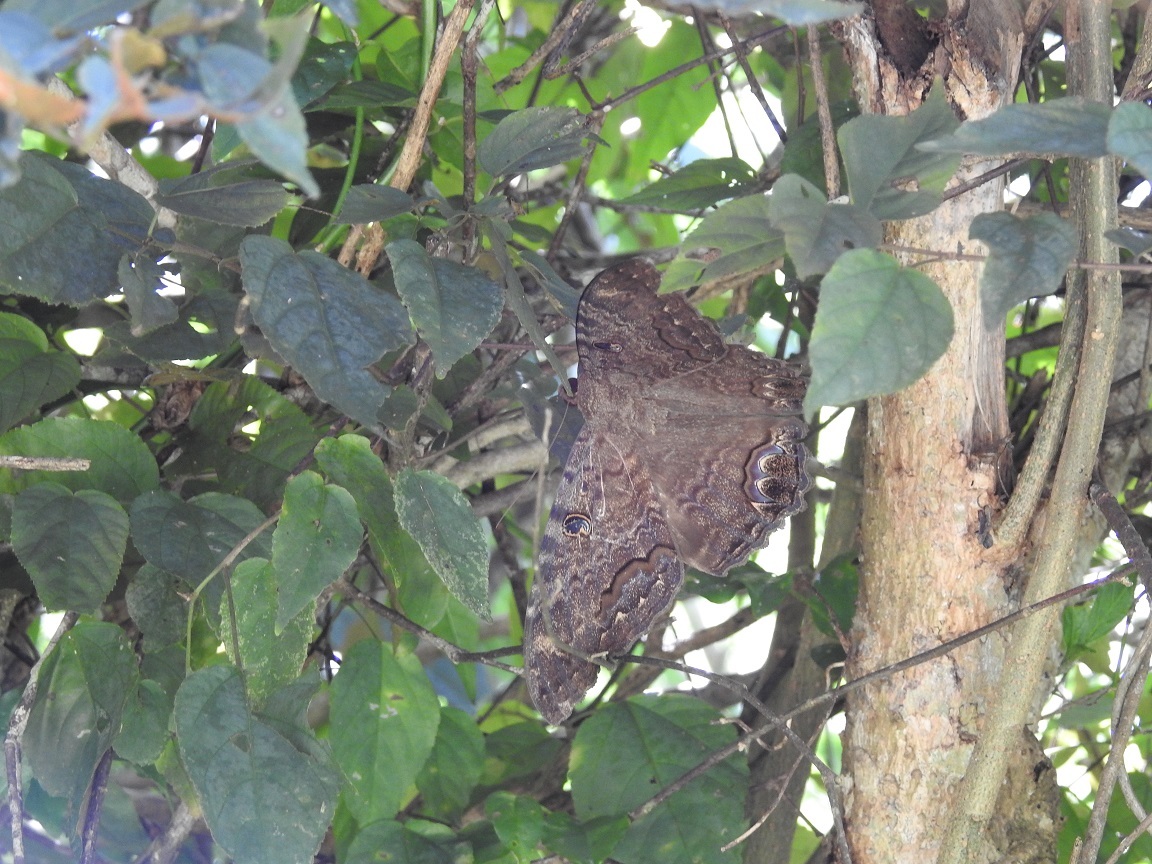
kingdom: Animalia
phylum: Arthropoda
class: Insecta
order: Lepidoptera
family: Erebidae
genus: Ascalapha
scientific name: Ascalapha odorata
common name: Black witch
